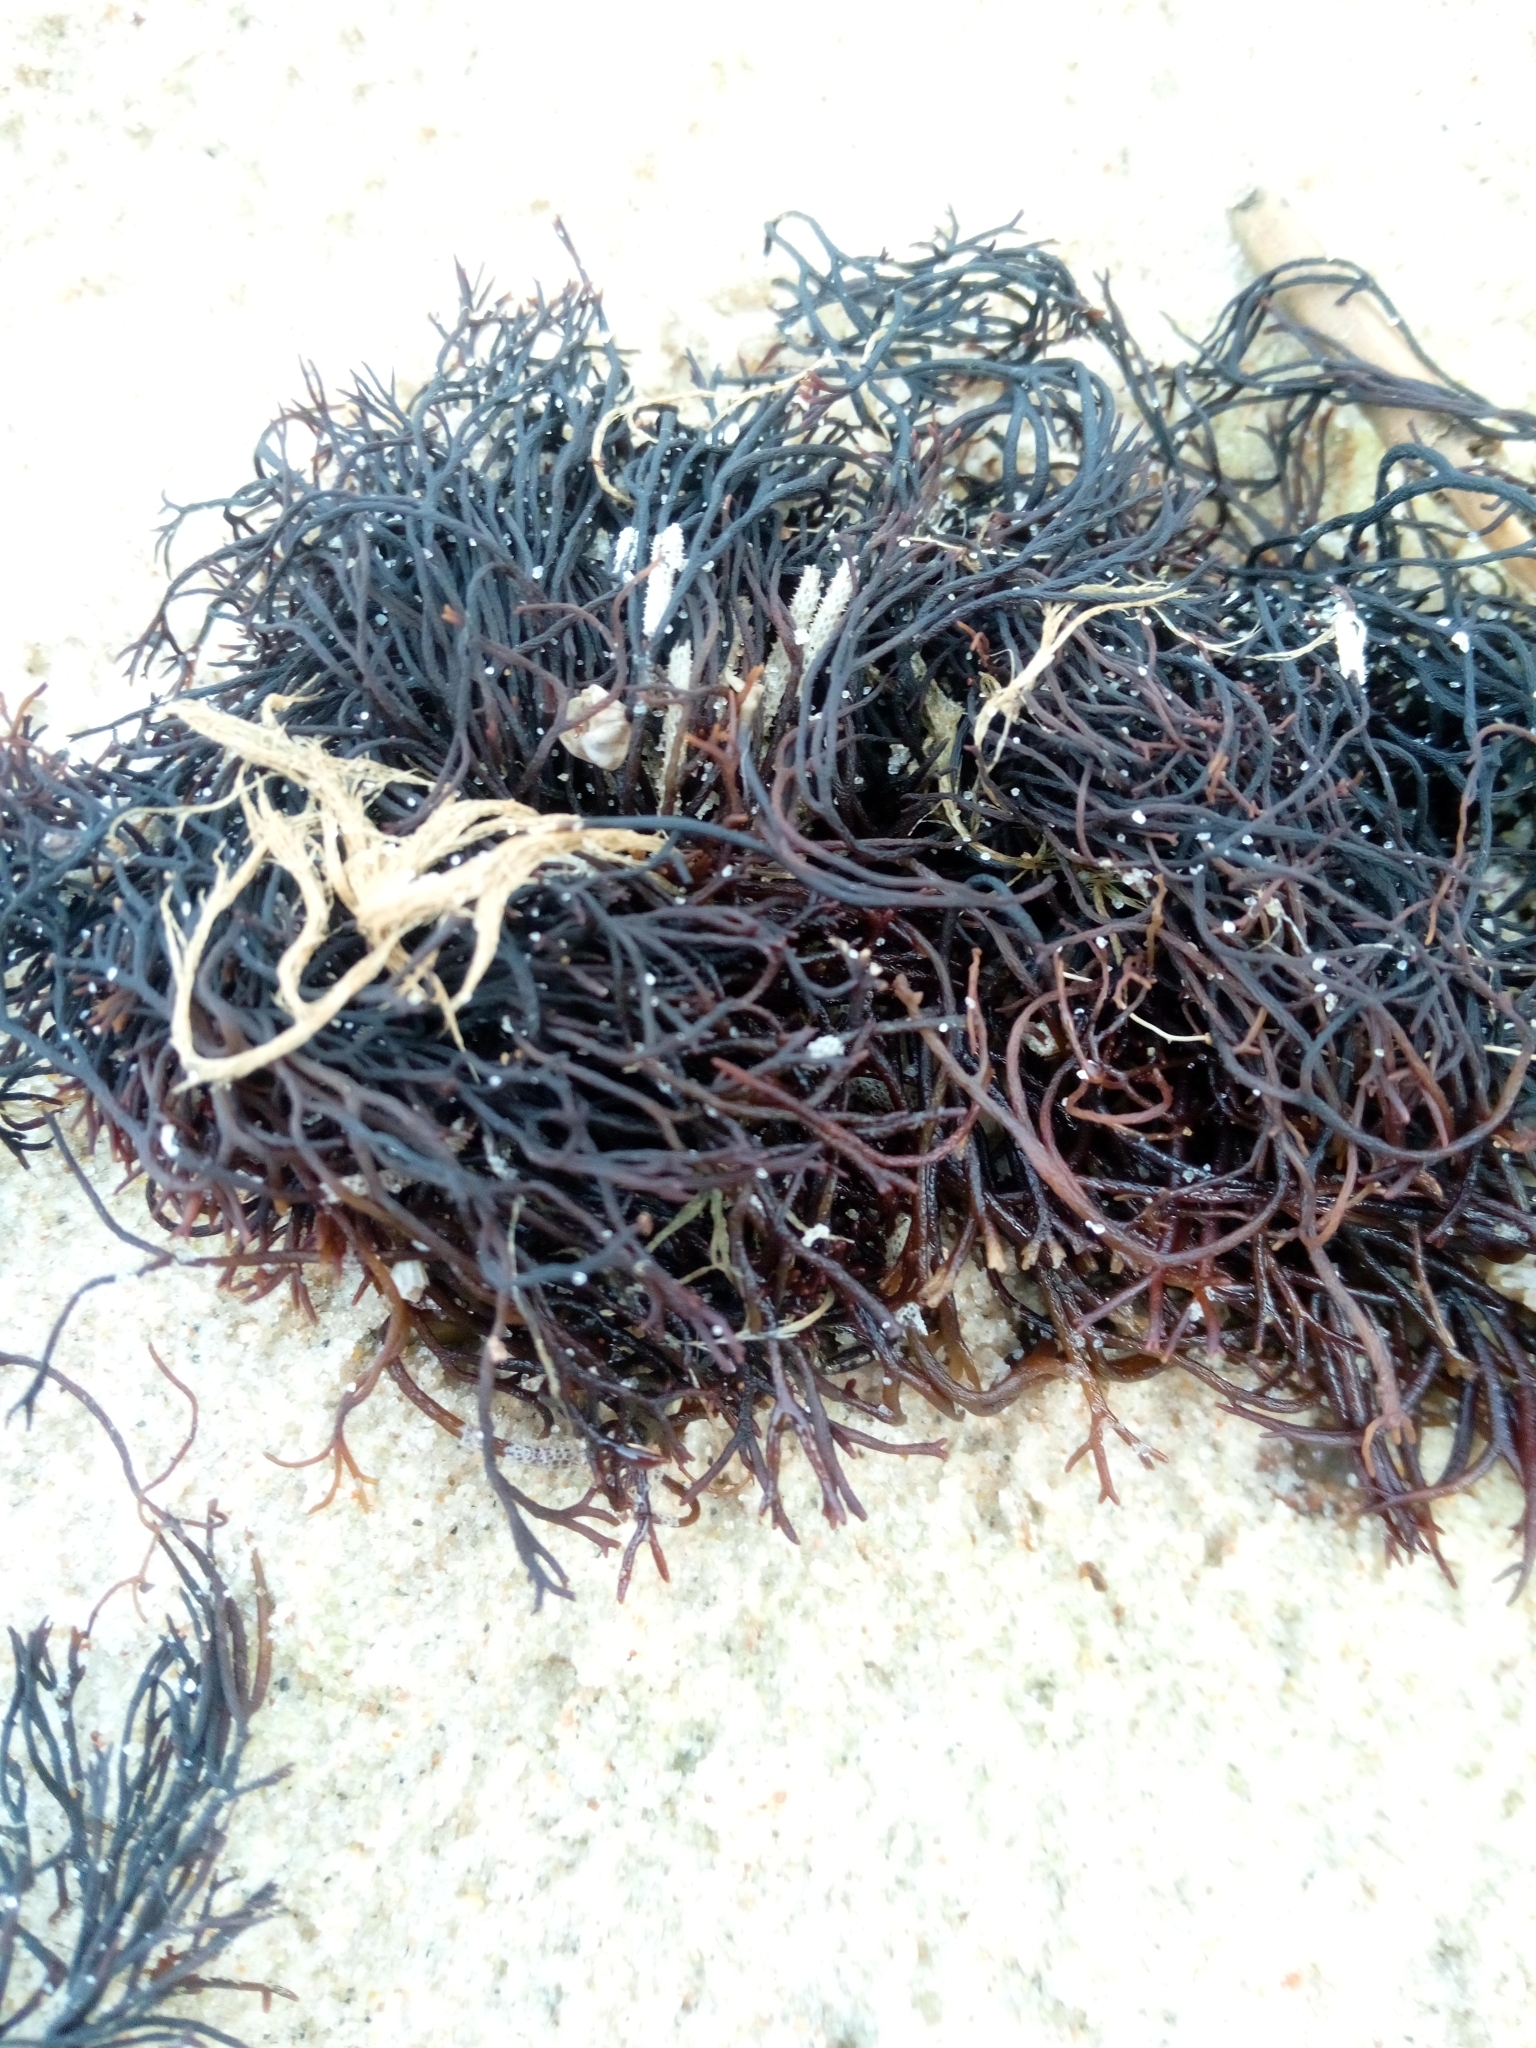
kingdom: Plantae
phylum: Rhodophyta
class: Florideophyceae
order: Gigartinales
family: Furcellariaceae
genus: Furcellaria
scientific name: Furcellaria lumbricalis
